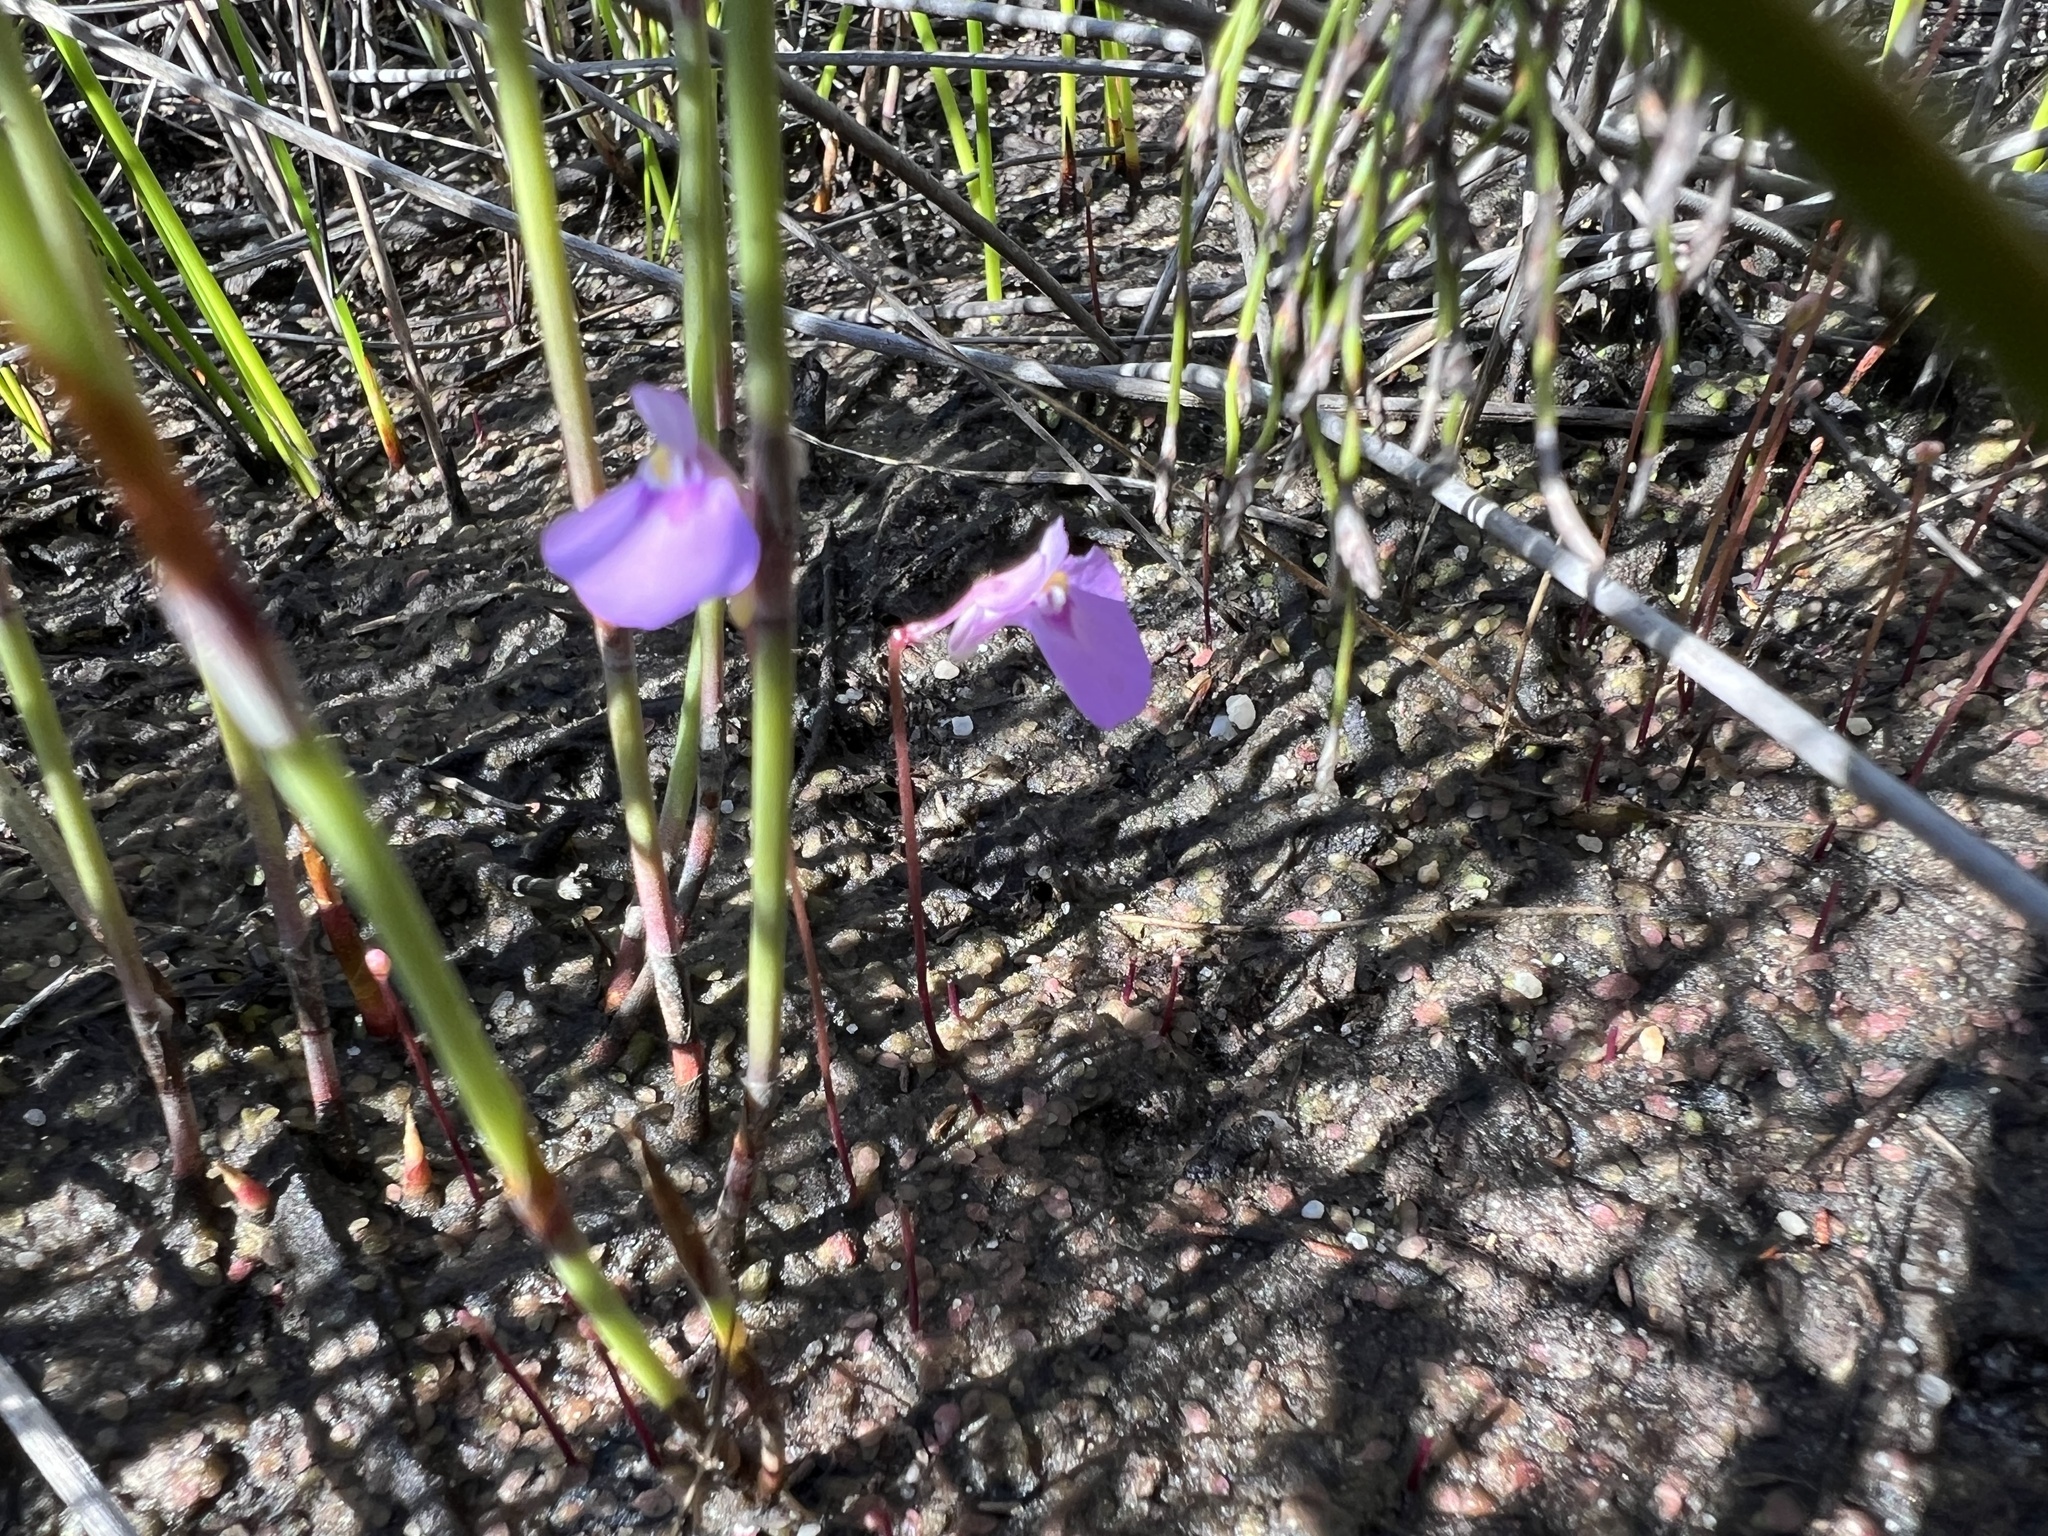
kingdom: Plantae
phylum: Tracheophyta
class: Magnoliopsida
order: Lamiales
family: Lentibulariaceae
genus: Utricularia
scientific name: Utricularia uniflora
